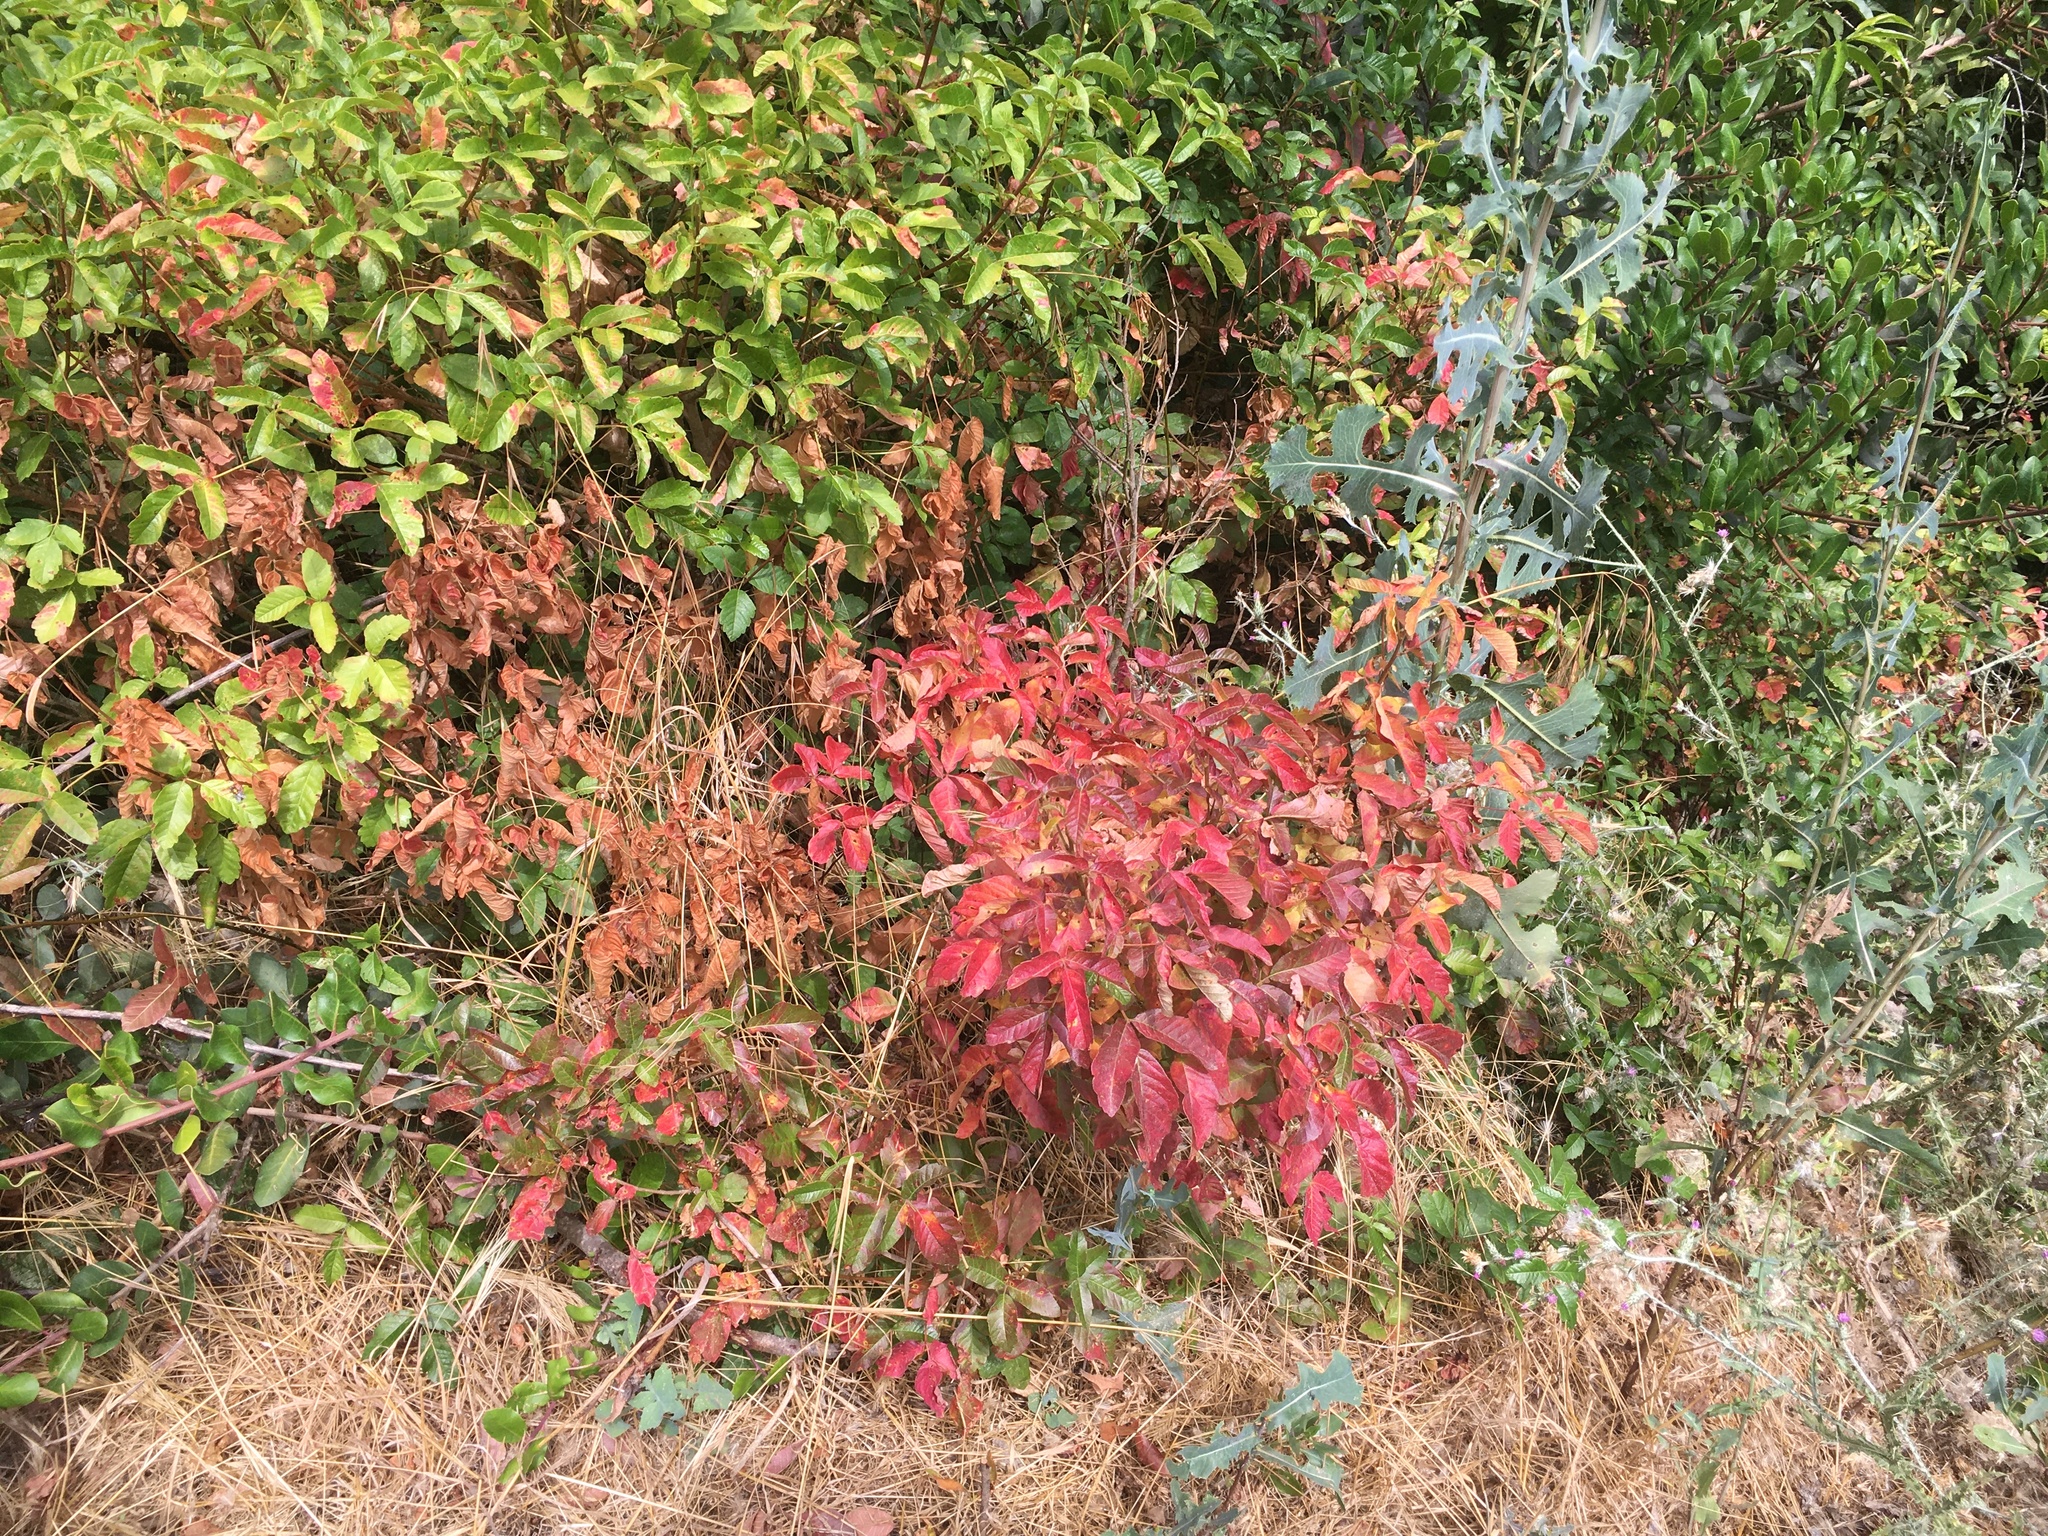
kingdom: Plantae
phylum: Tracheophyta
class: Magnoliopsida
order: Sapindales
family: Anacardiaceae
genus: Toxicodendron
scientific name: Toxicodendron diversilobum
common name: Pacific poison-oak
